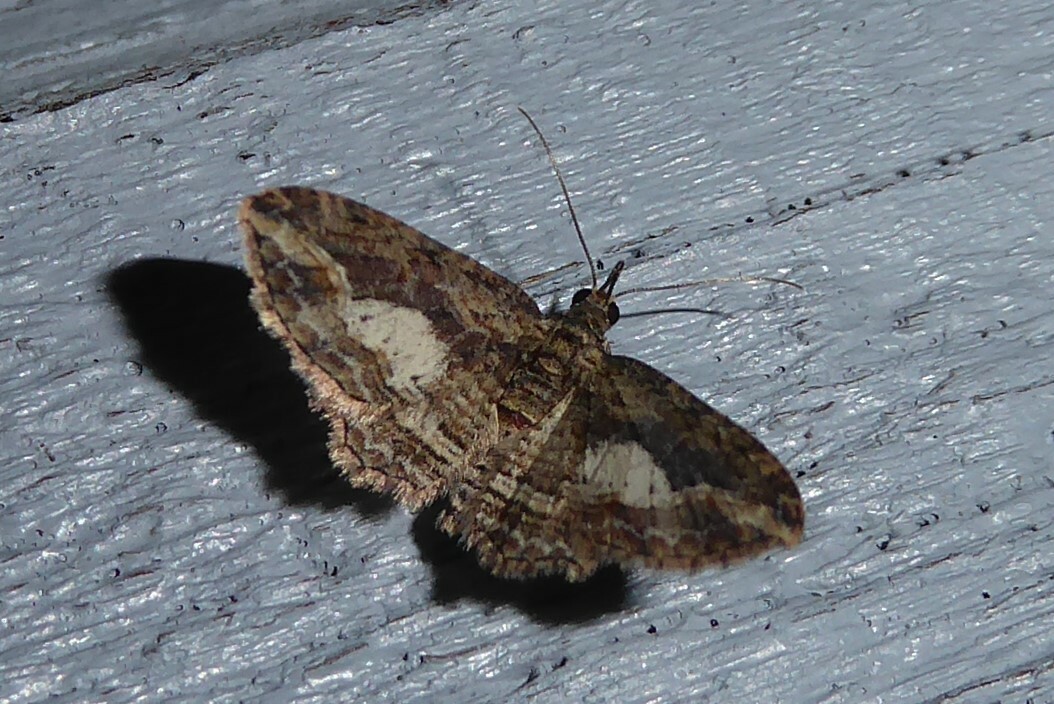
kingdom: Animalia
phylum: Arthropoda
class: Insecta
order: Lepidoptera
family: Geometridae
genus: Chloroclystis
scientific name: Chloroclystis filata
